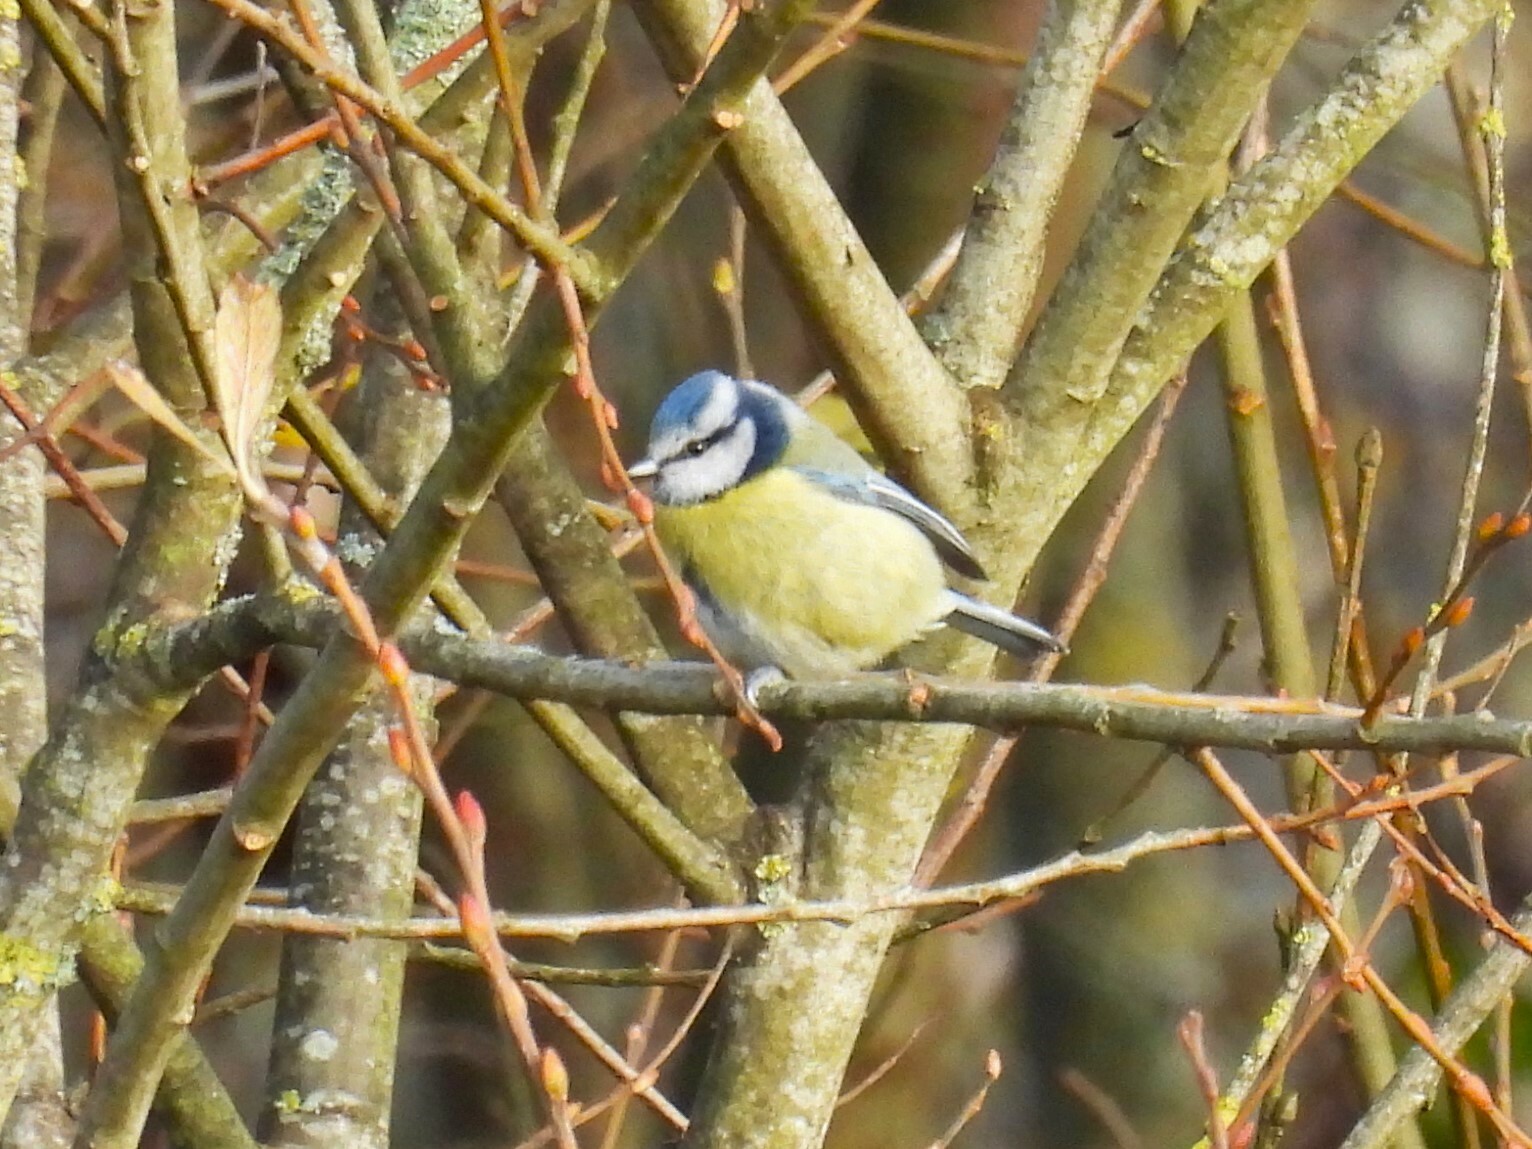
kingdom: Animalia
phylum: Chordata
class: Aves
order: Passeriformes
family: Paridae
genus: Cyanistes
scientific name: Cyanistes caeruleus
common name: Eurasian blue tit
